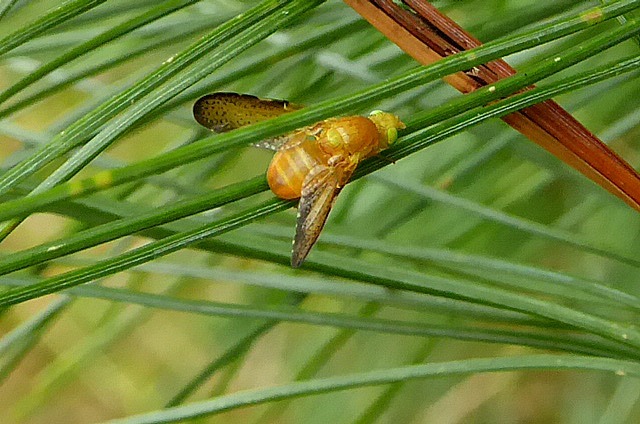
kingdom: Animalia
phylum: Arthropoda
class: Insecta
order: Diptera
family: Tephritidae
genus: Icterica
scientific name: Icterica seriata
